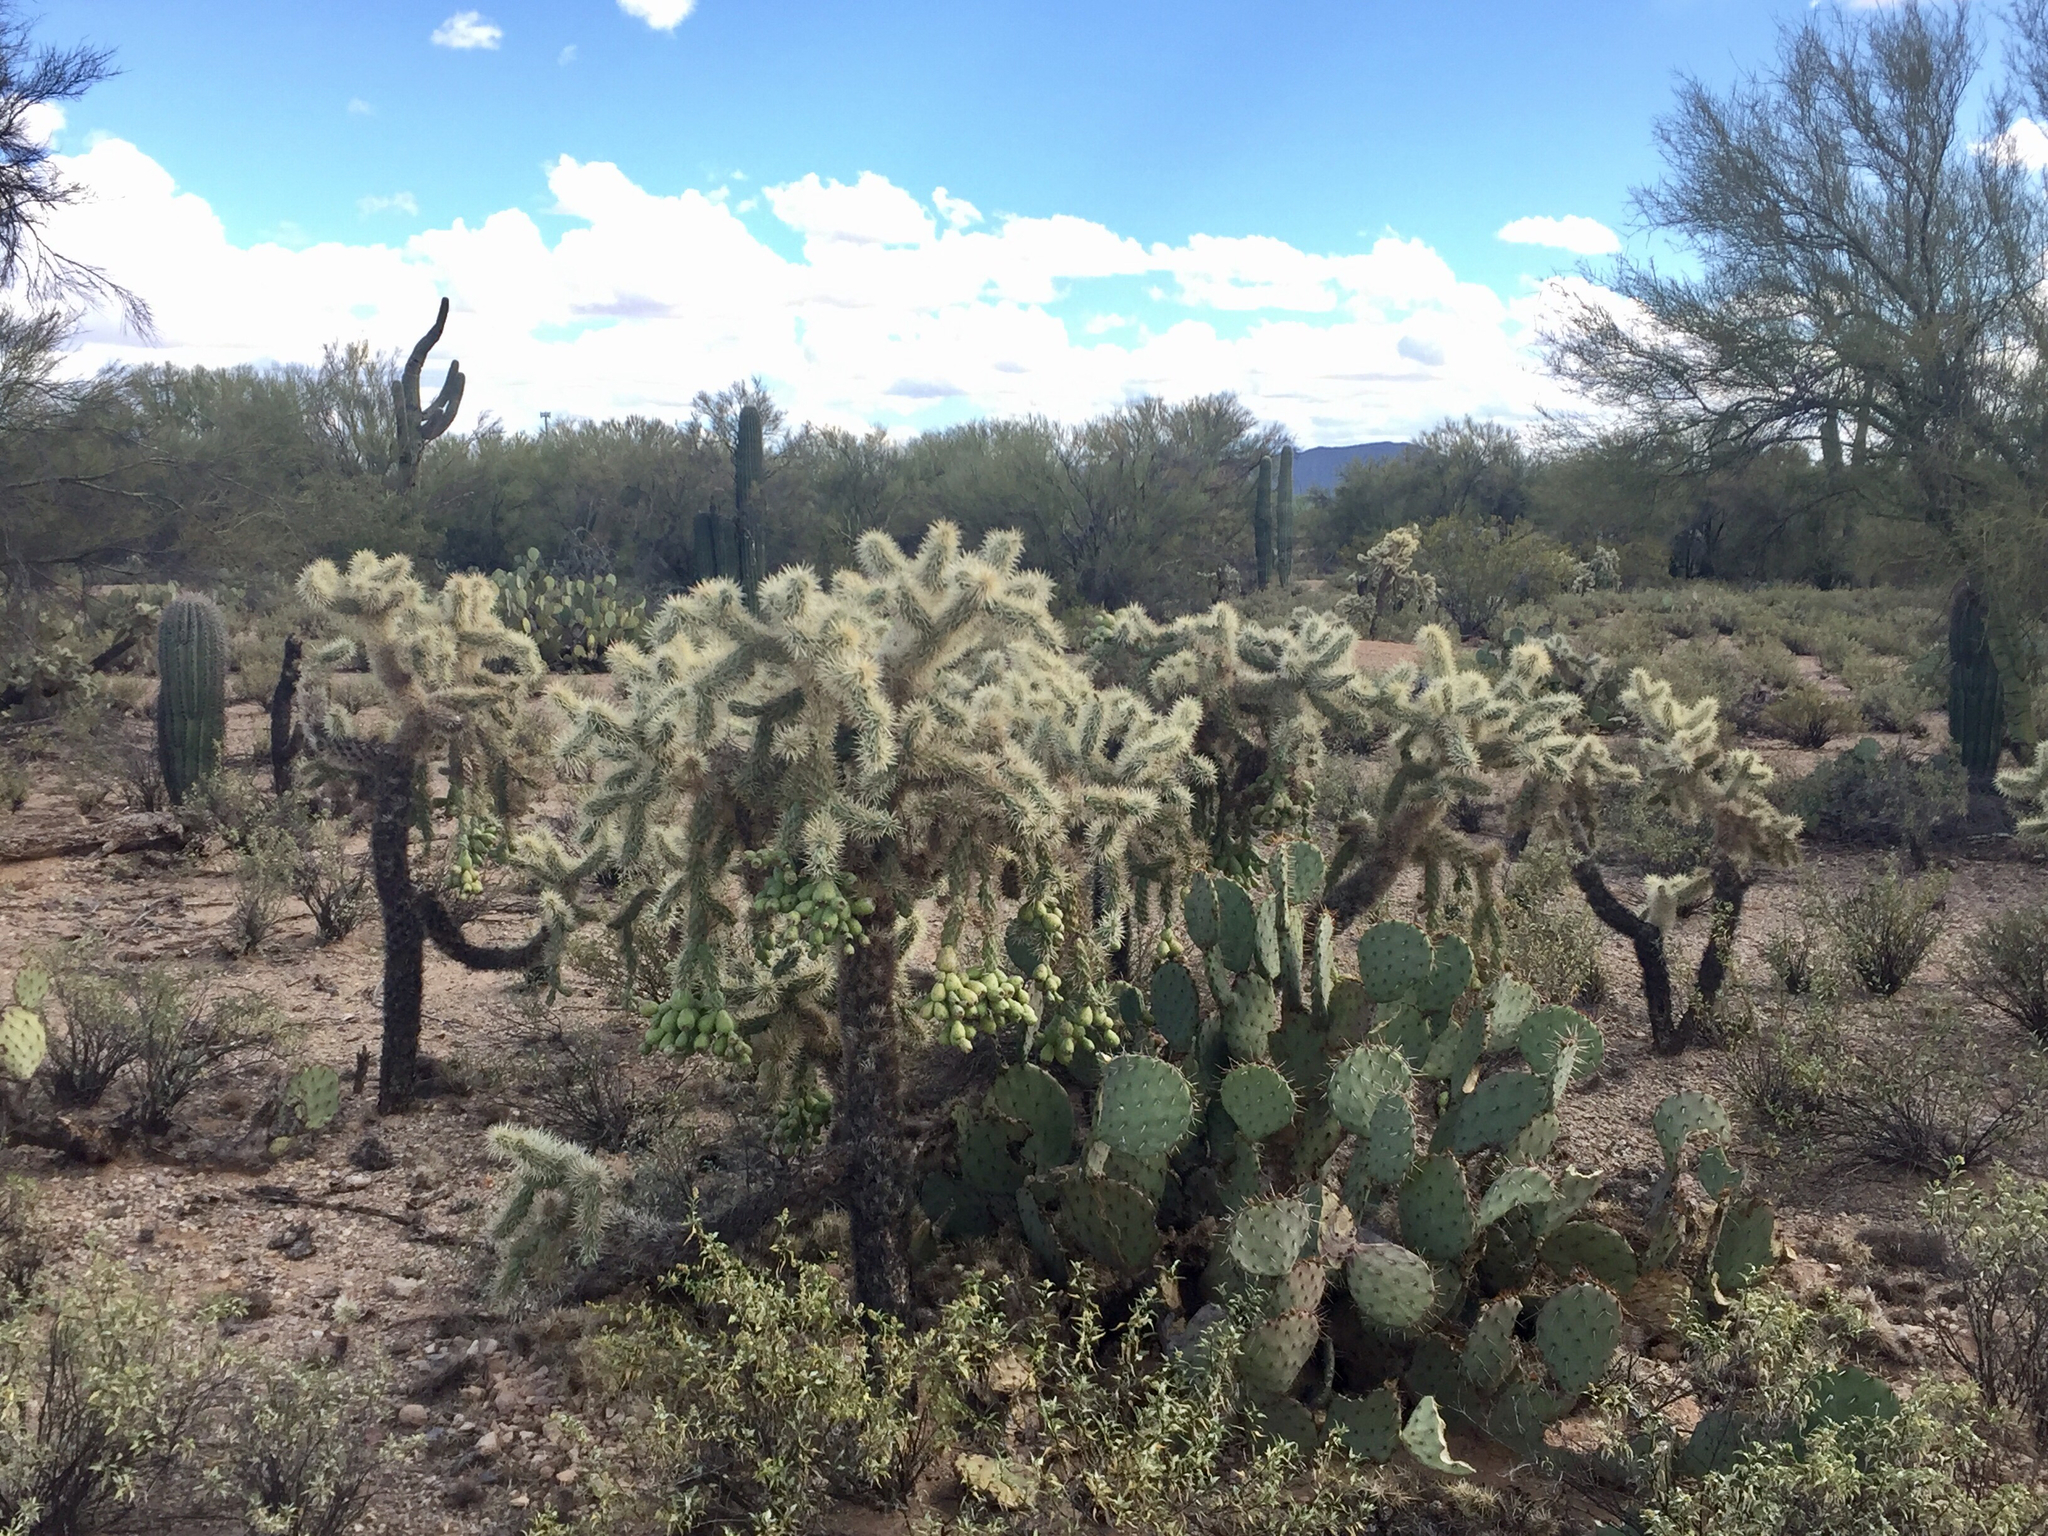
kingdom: Plantae
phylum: Tracheophyta
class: Magnoliopsida
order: Caryophyllales
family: Cactaceae
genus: Cylindropuntia
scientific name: Cylindropuntia fulgida
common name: Jumping cholla
